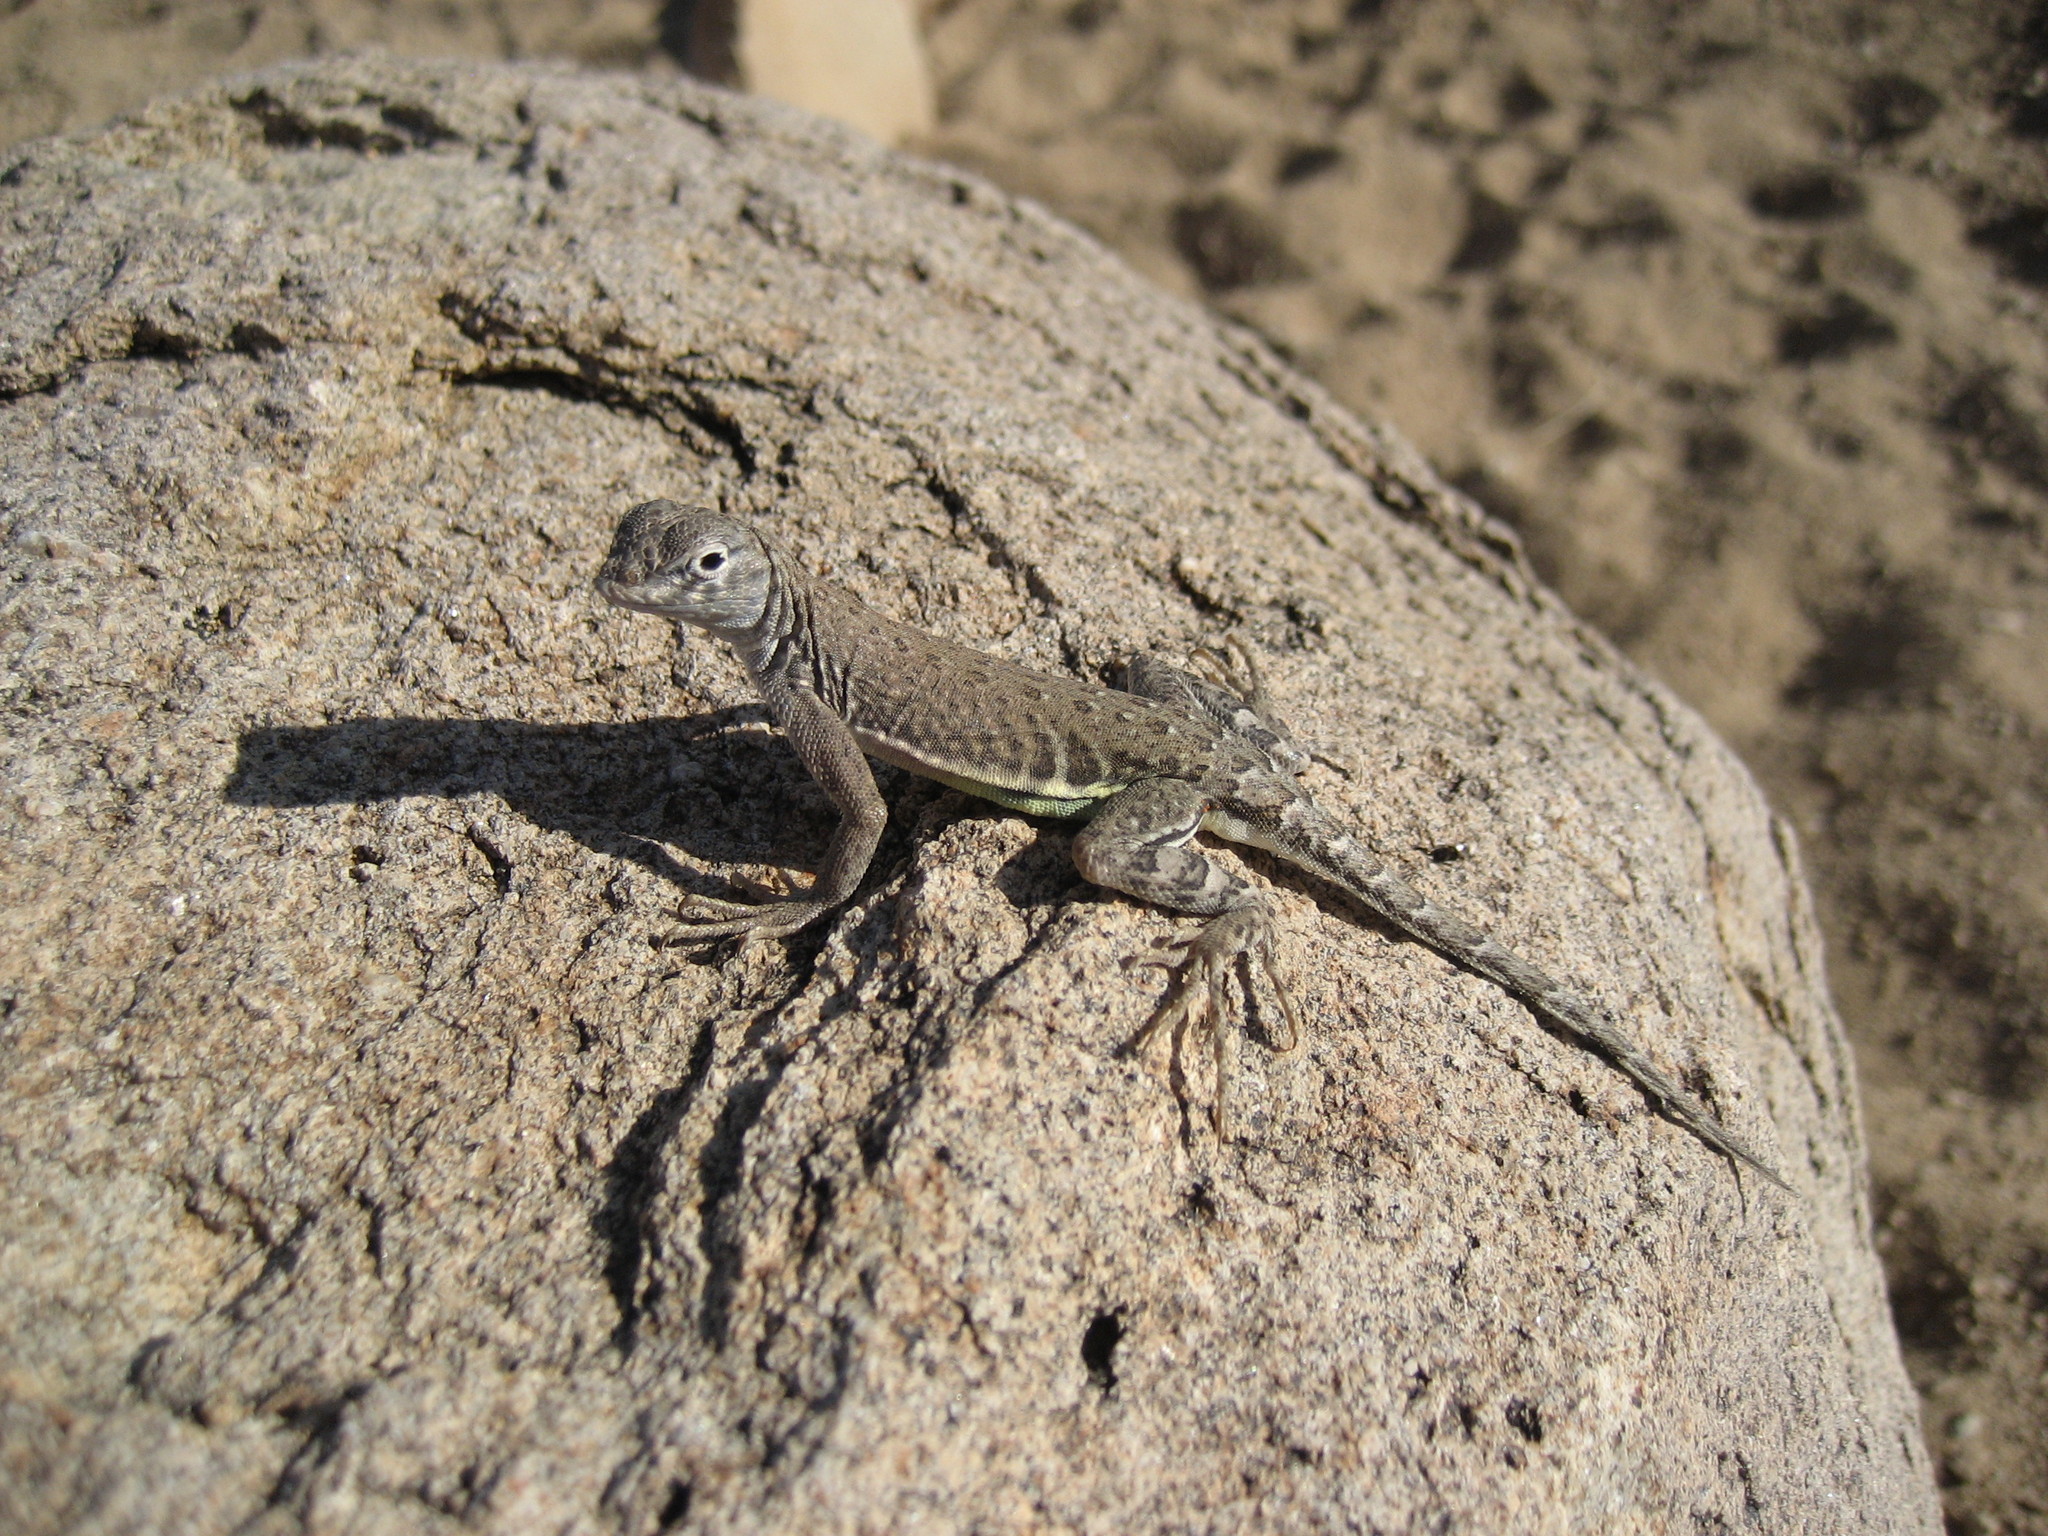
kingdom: Animalia
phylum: Chordata
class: Squamata
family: Phrynosomatidae
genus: Cophosaurus
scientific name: Cophosaurus texanus
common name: Greater earless lizard
